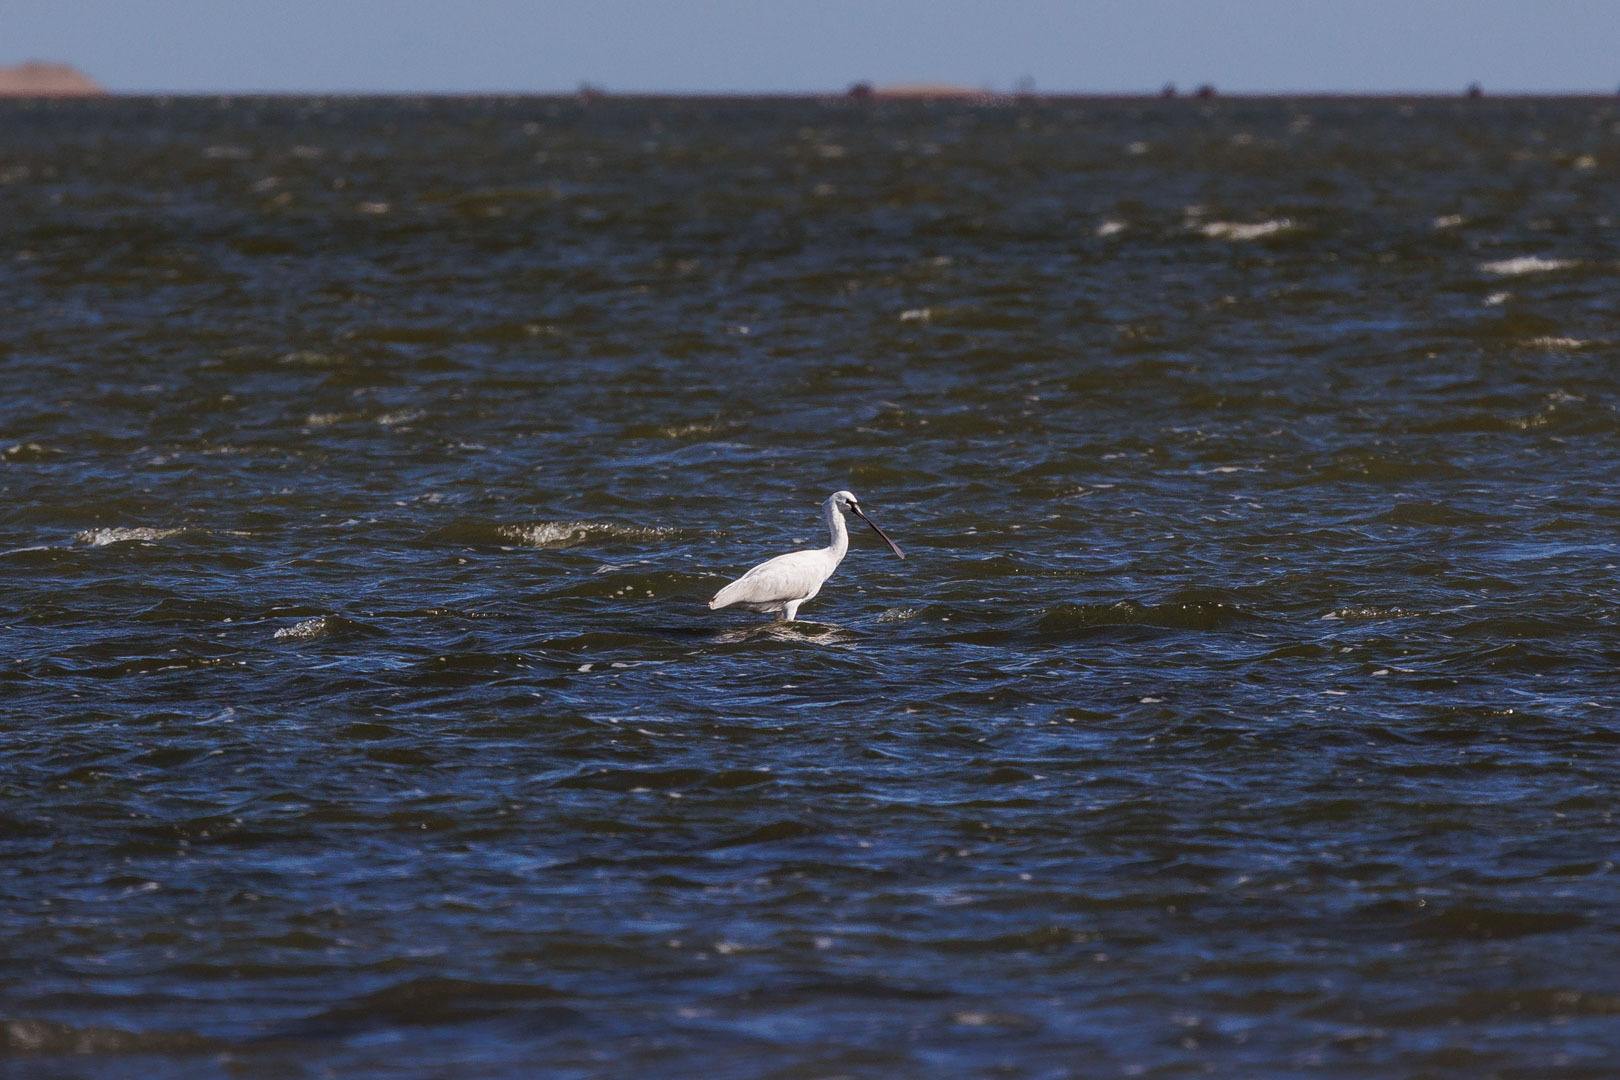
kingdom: Animalia
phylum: Chordata
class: Aves
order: Pelecaniformes
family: Threskiornithidae
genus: Platalea
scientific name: Platalea leucorodia
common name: Eurasian spoonbill
